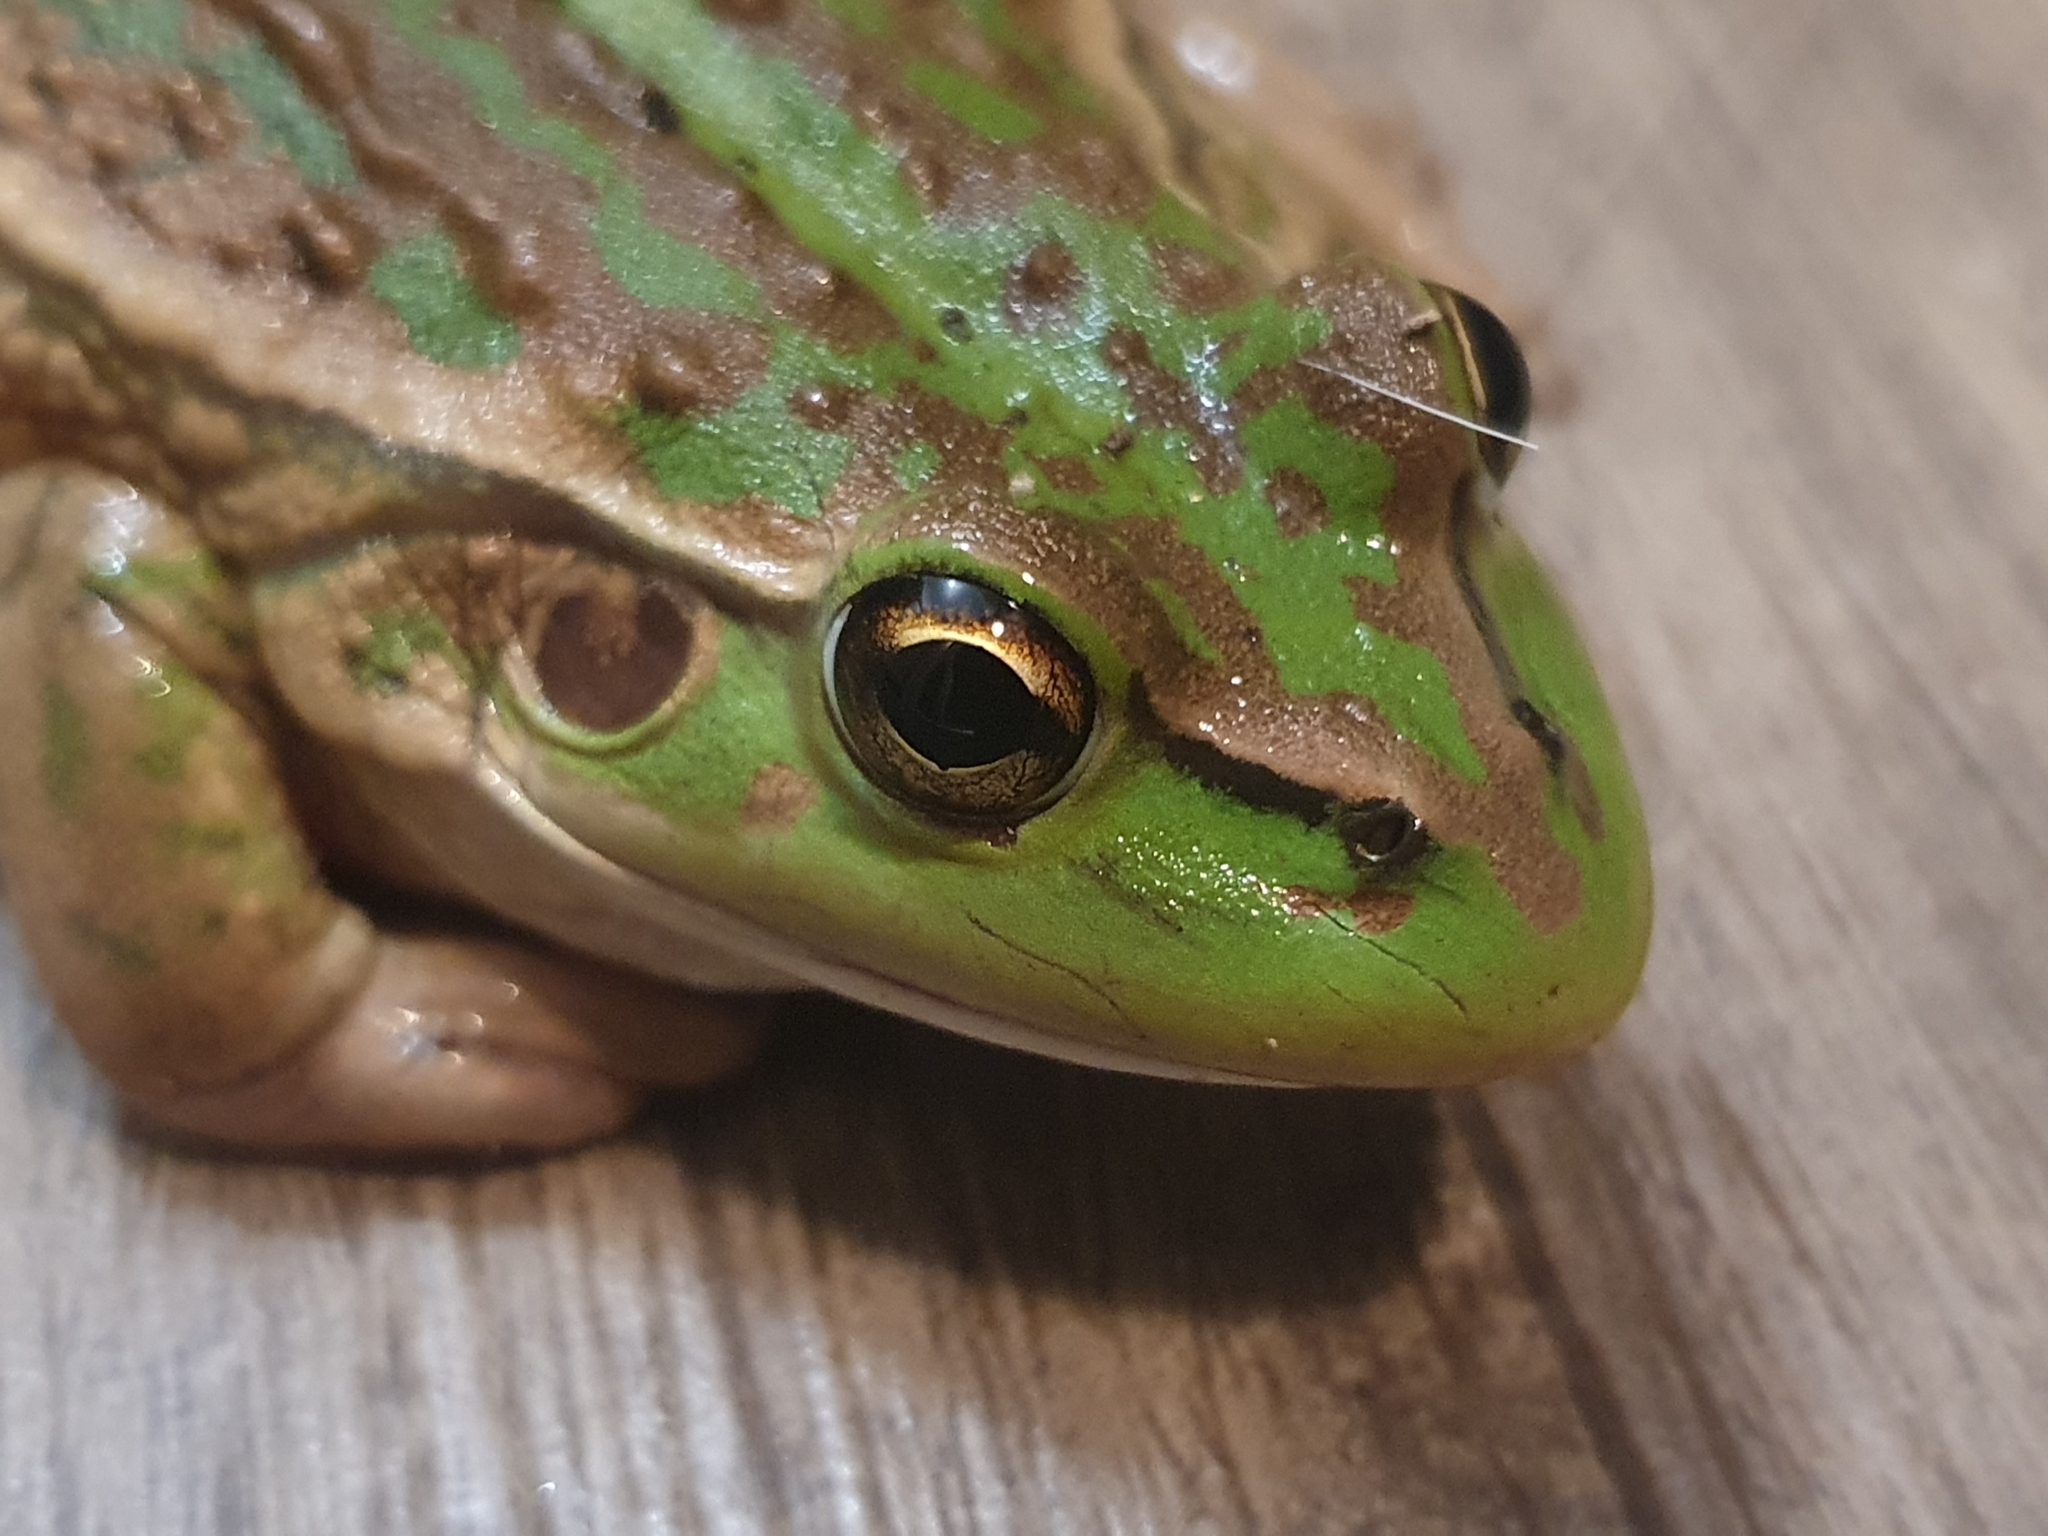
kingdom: Animalia
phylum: Chordata
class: Amphibia
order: Anura
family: Pelodryadidae
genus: Ranoidea
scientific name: Ranoidea raniformis
